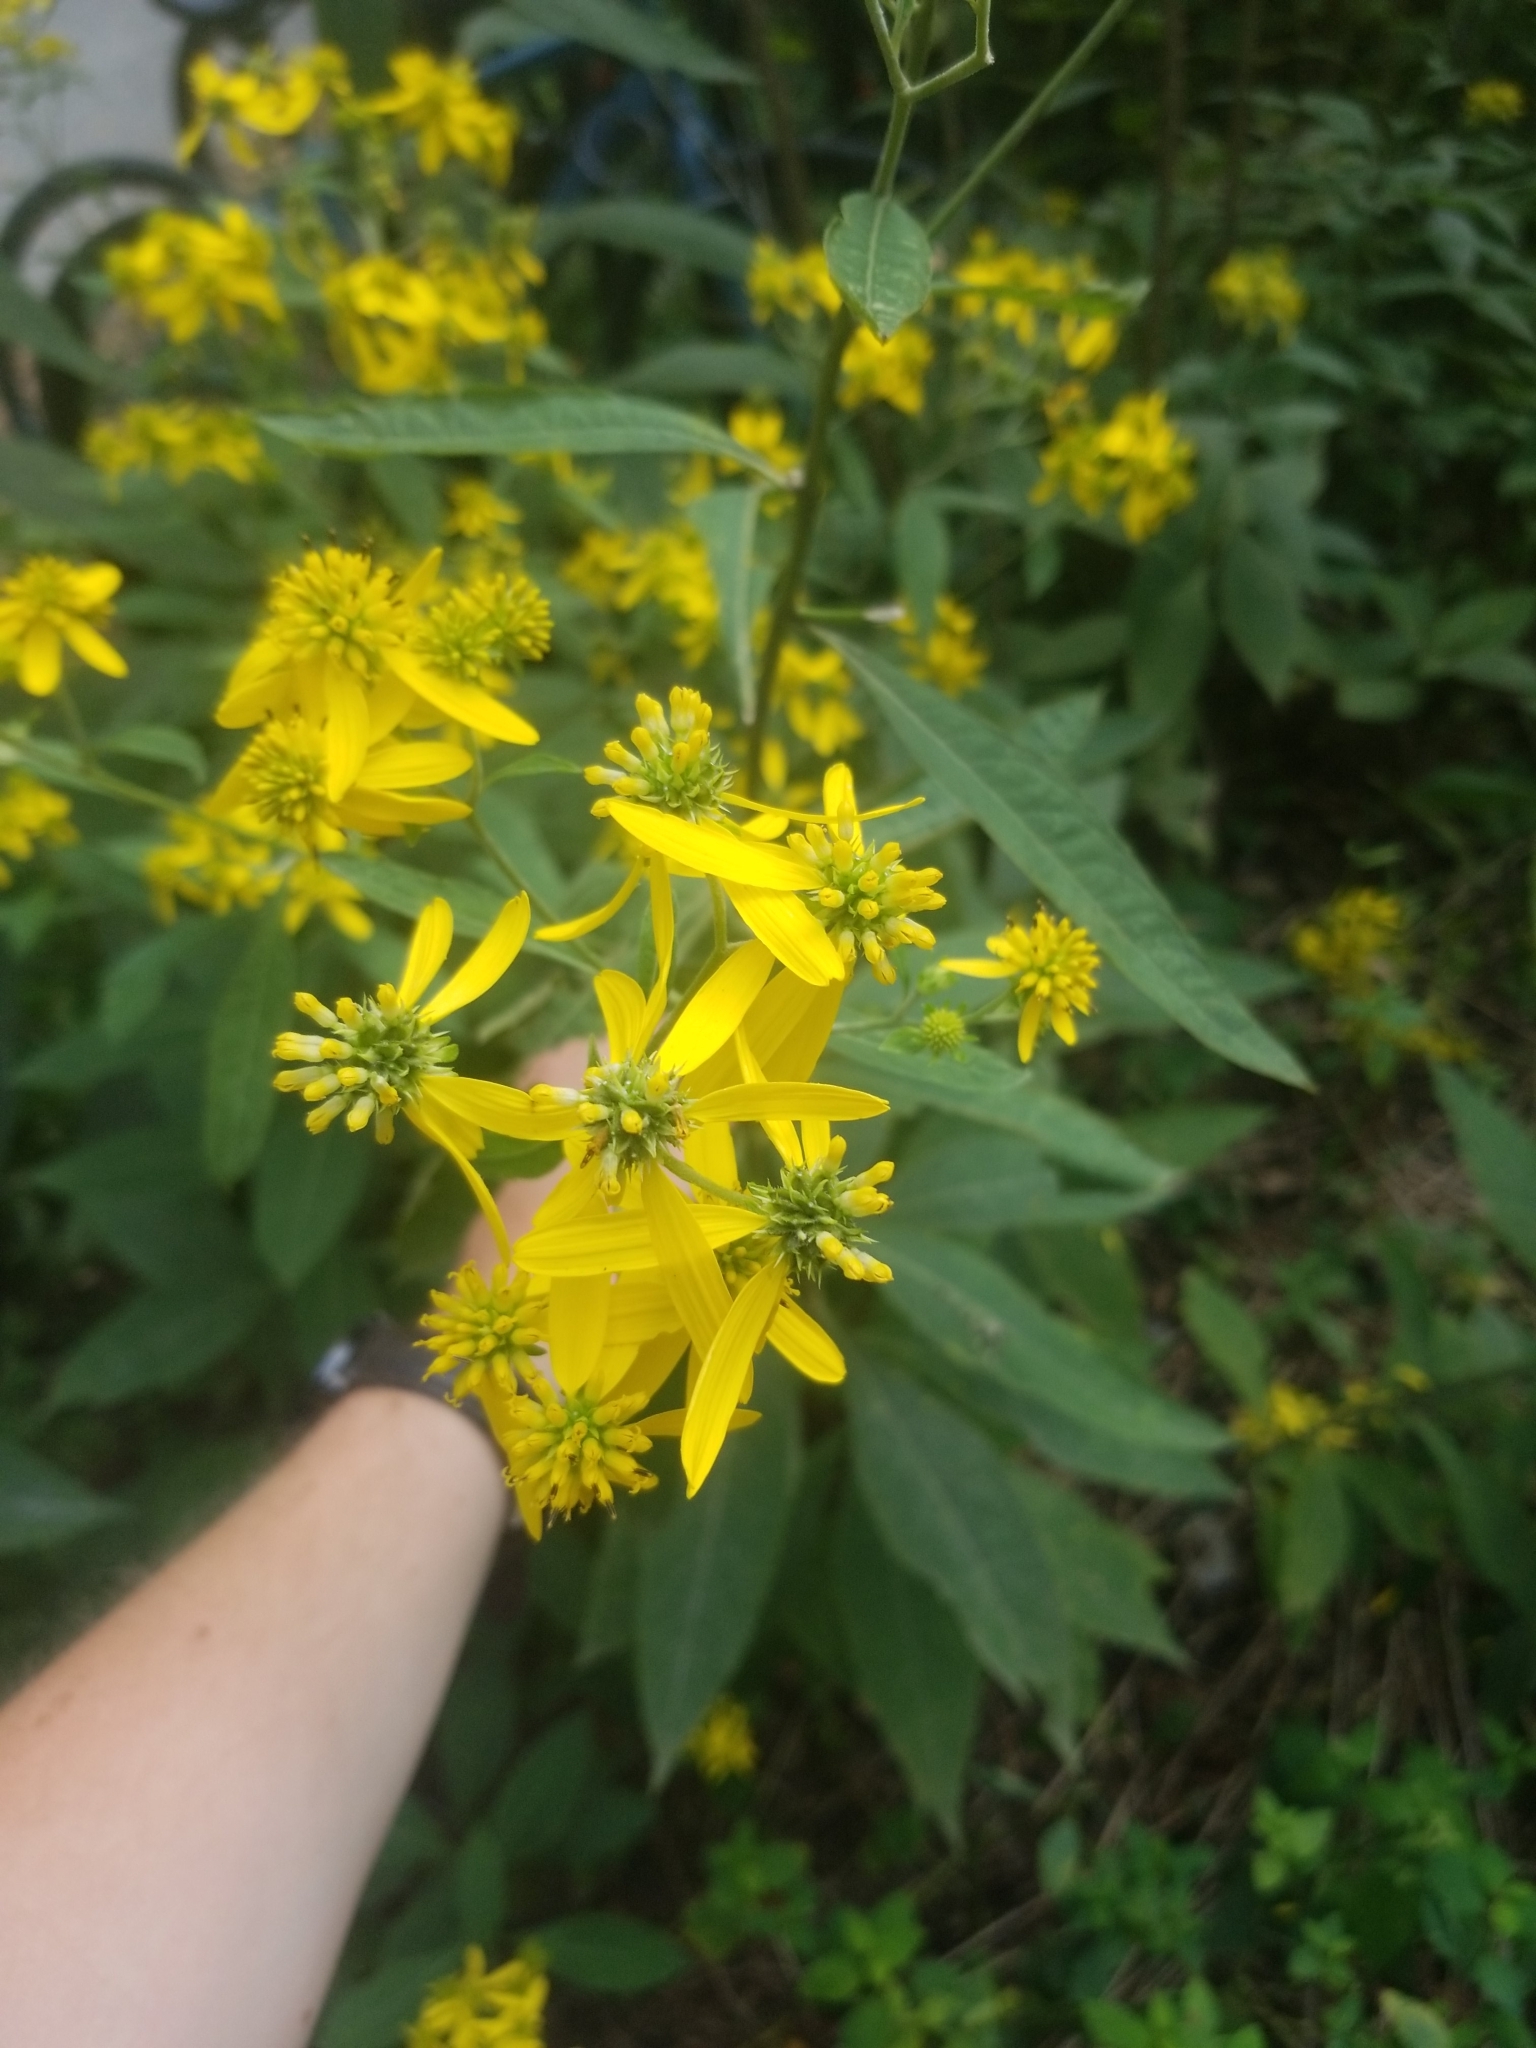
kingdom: Plantae
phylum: Tracheophyta
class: Magnoliopsida
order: Asterales
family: Asteraceae
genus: Verbesina
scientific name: Verbesina alternifolia
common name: Wingstem
